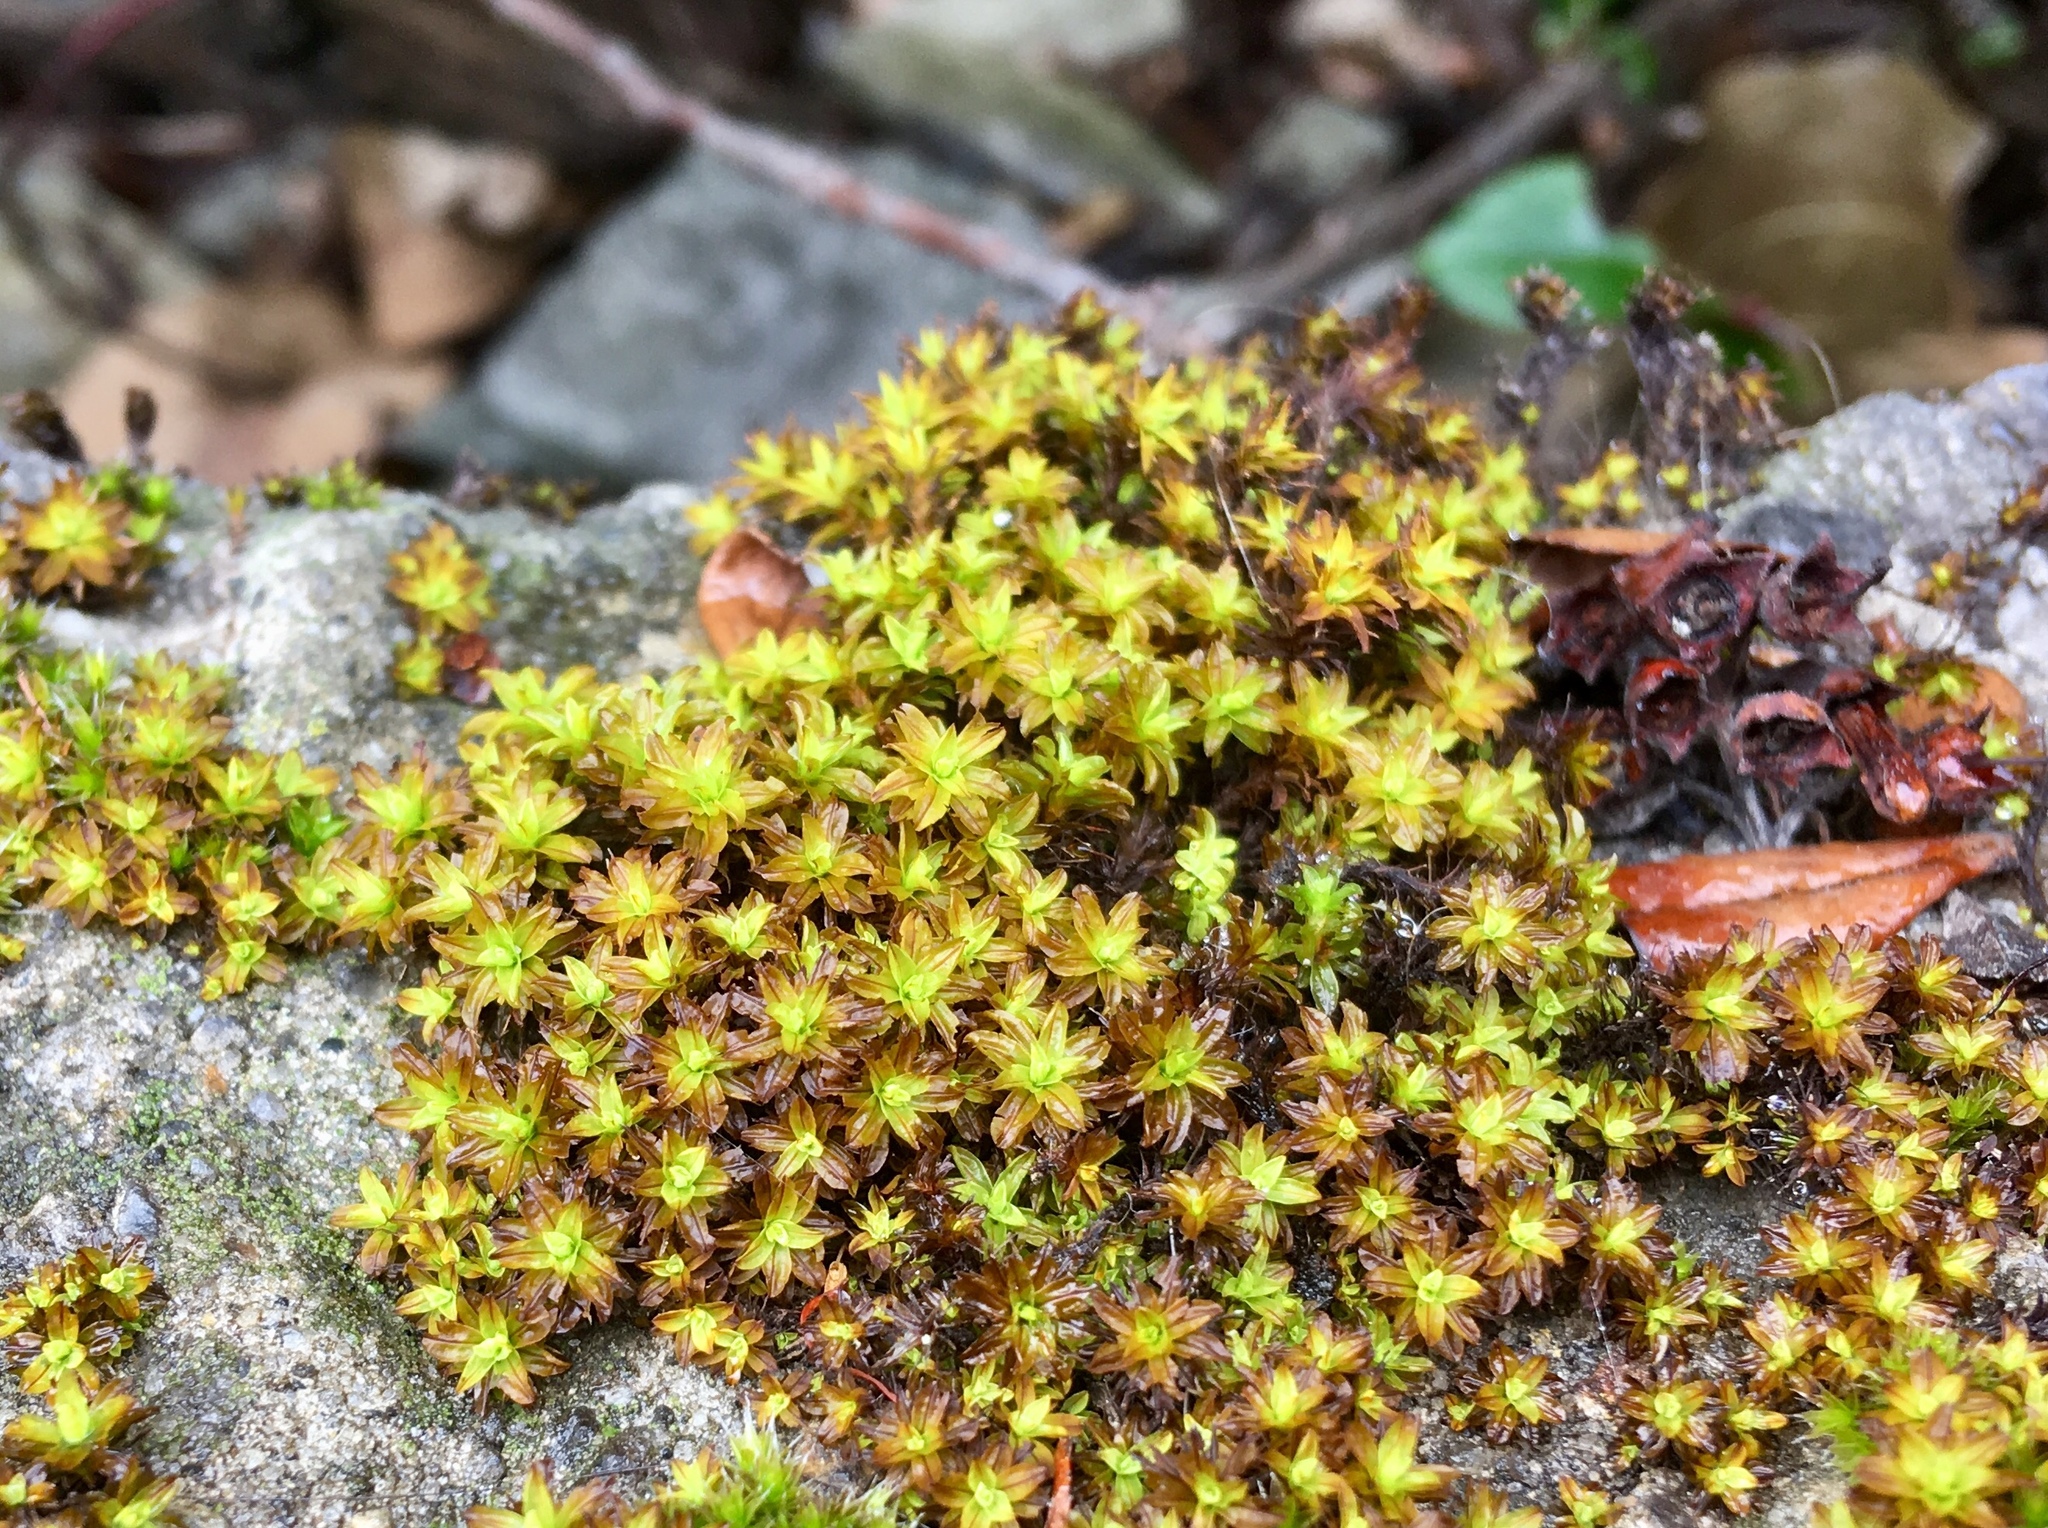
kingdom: Plantae
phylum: Bryophyta
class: Bryopsida
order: Pottiales
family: Pottiaceae
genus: Syntrichia
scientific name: Syntrichia fragilis
